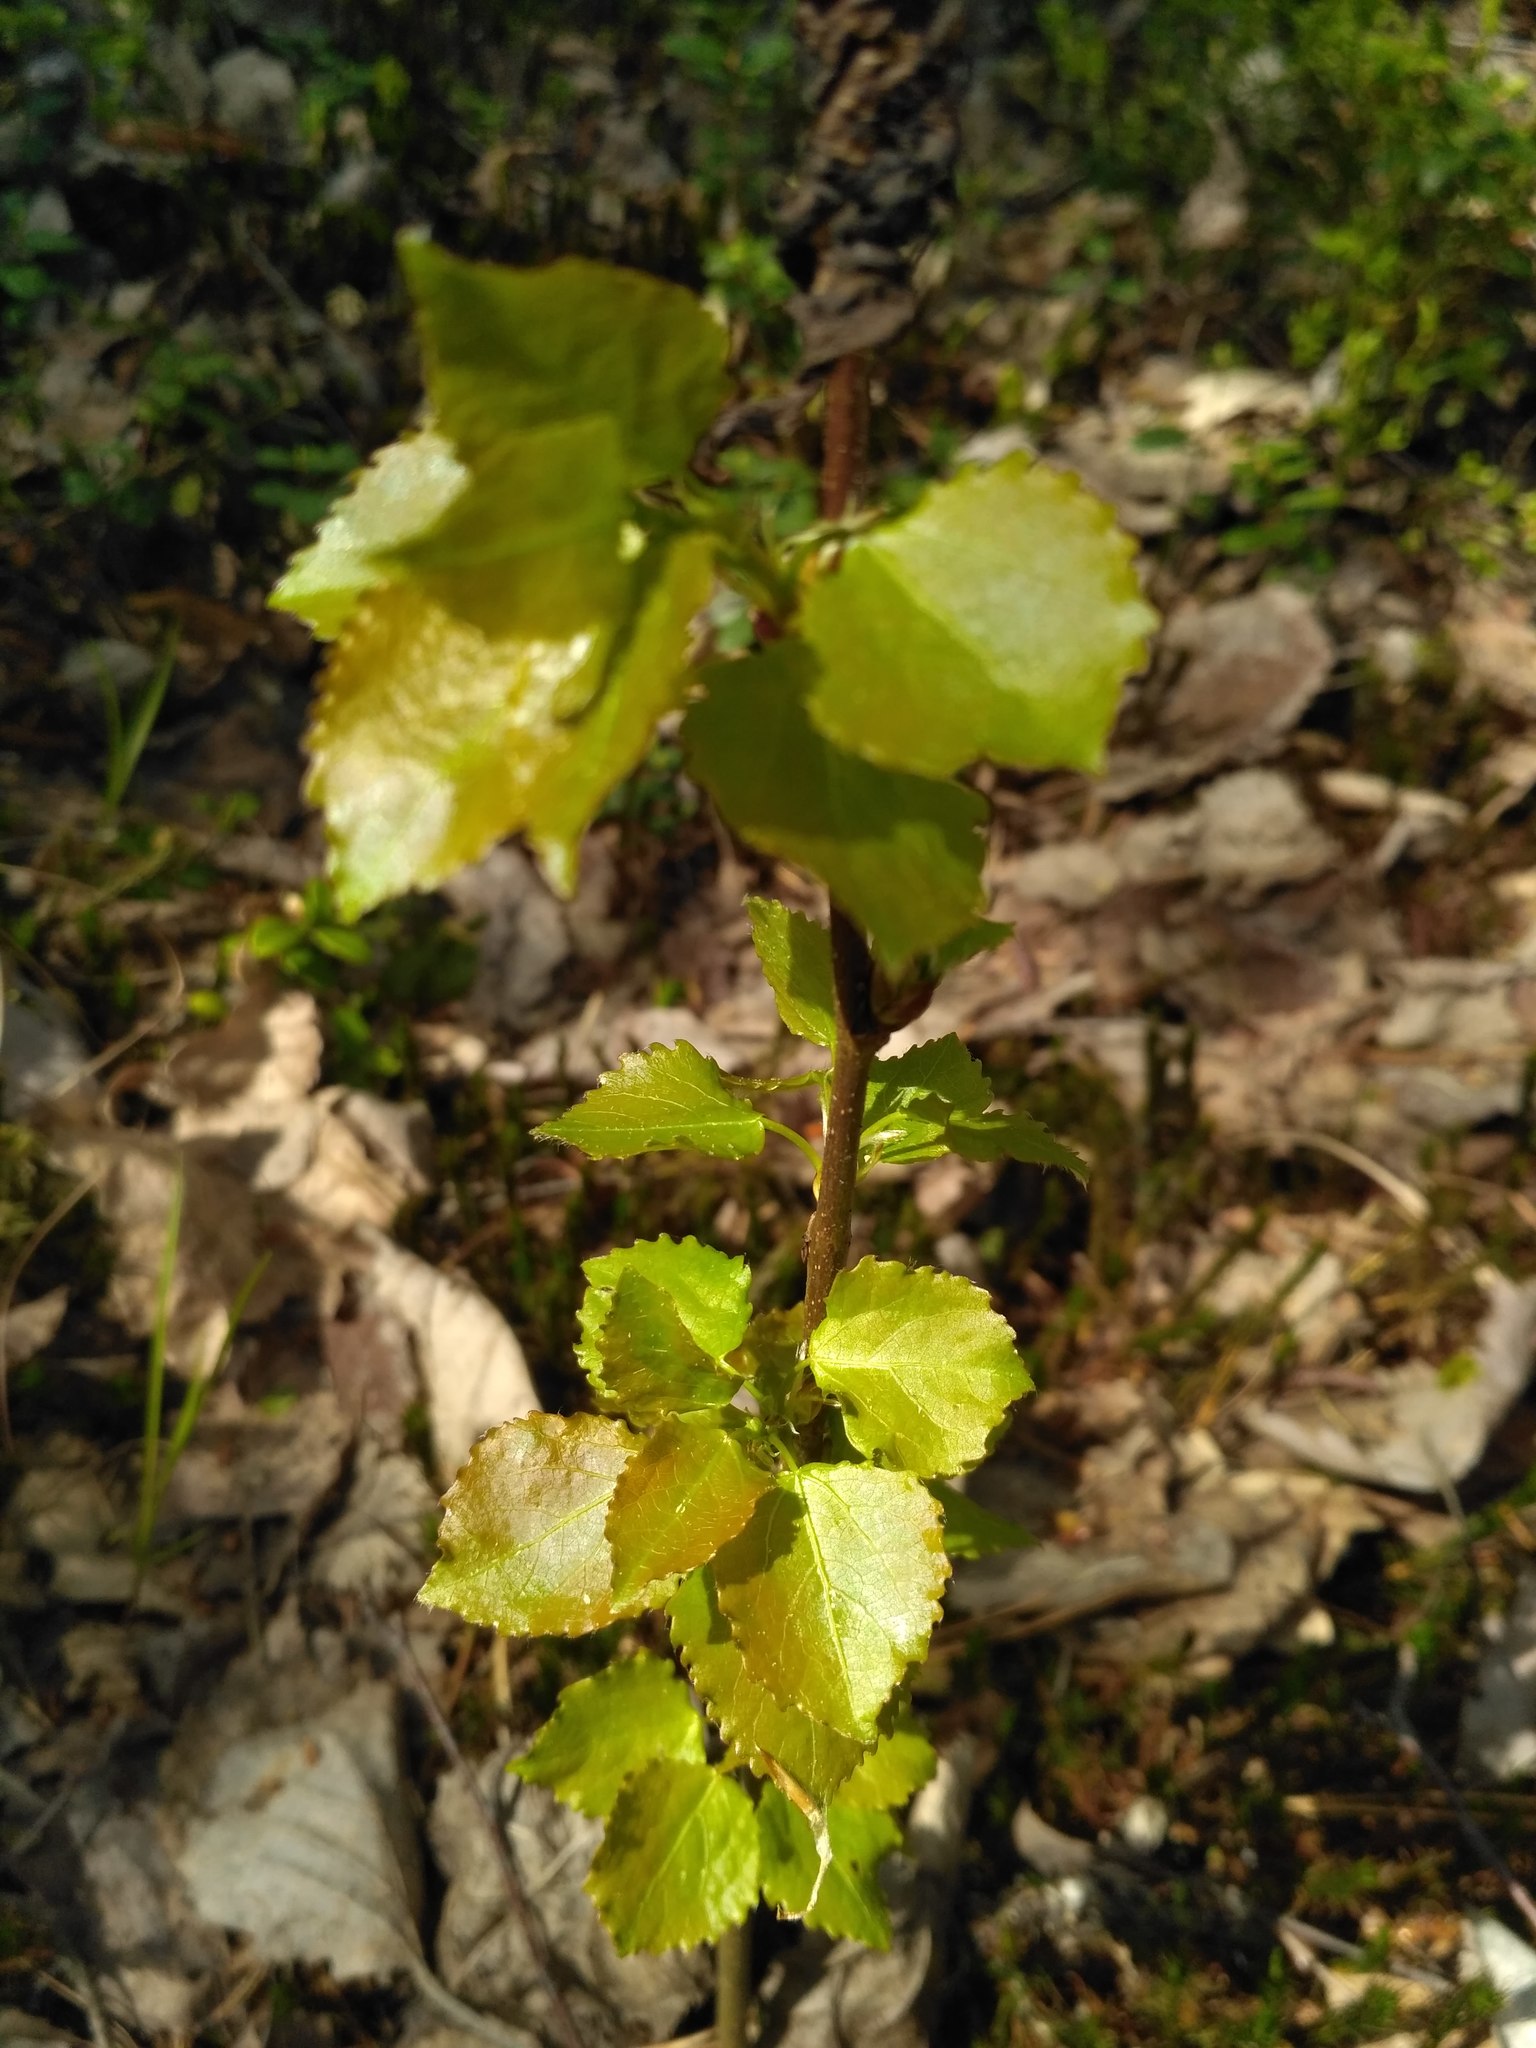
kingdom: Plantae
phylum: Tracheophyta
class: Magnoliopsida
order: Malpighiales
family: Salicaceae
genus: Populus
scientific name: Populus tremula
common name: European aspen
